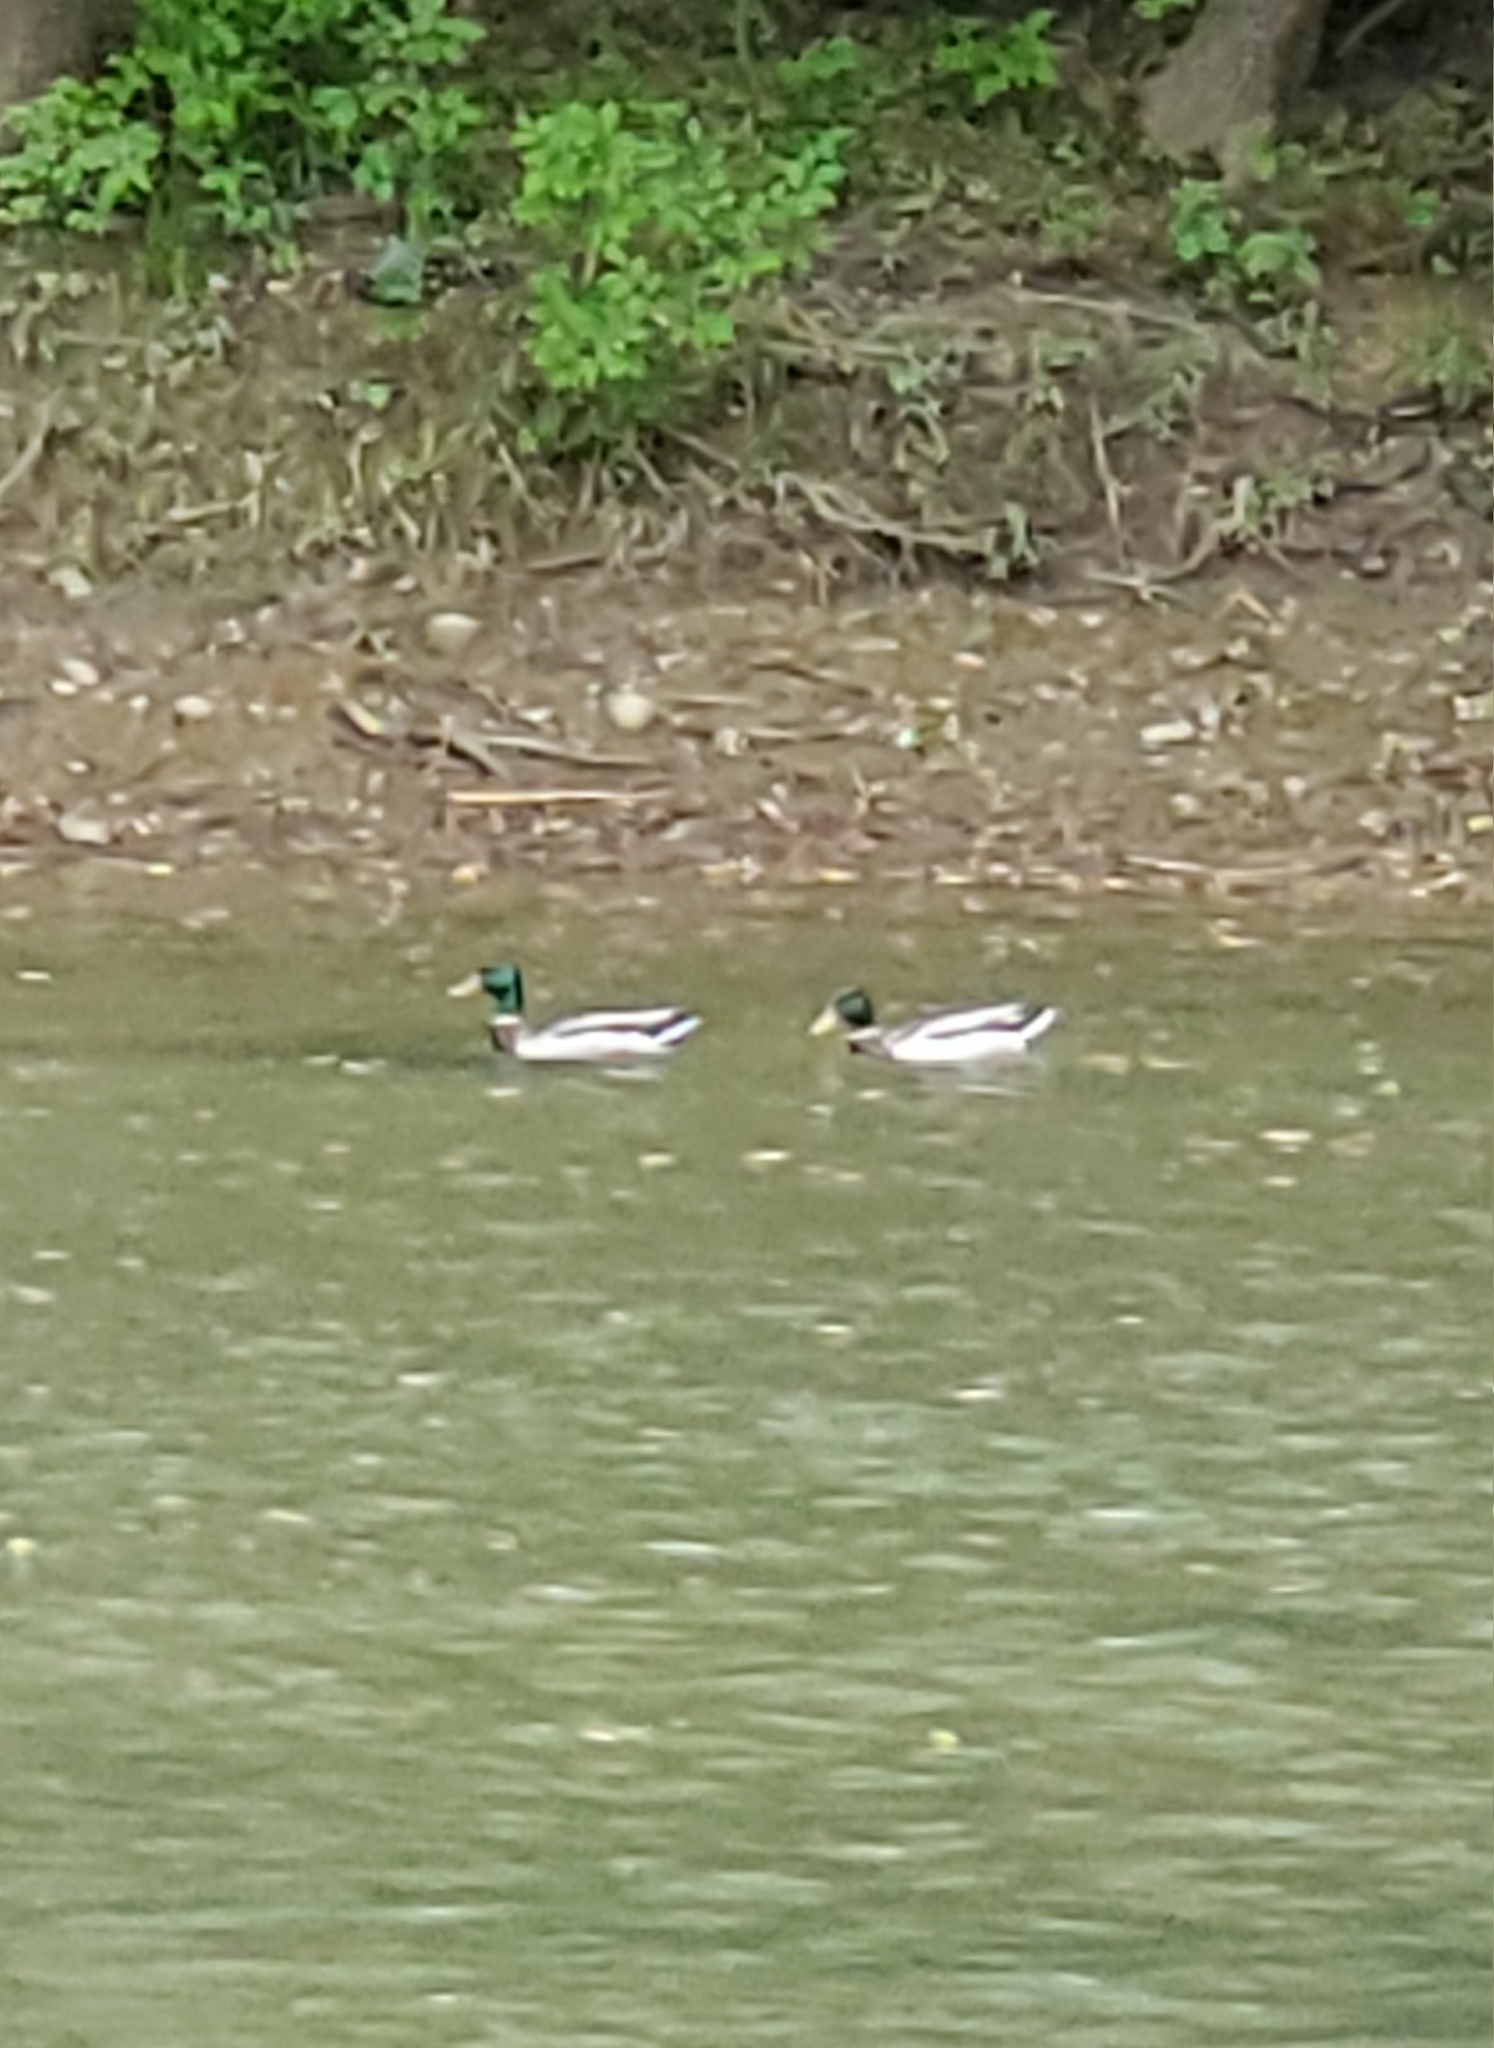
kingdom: Animalia
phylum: Chordata
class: Aves
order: Anseriformes
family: Anatidae
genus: Anas
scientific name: Anas platyrhynchos
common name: Mallard
